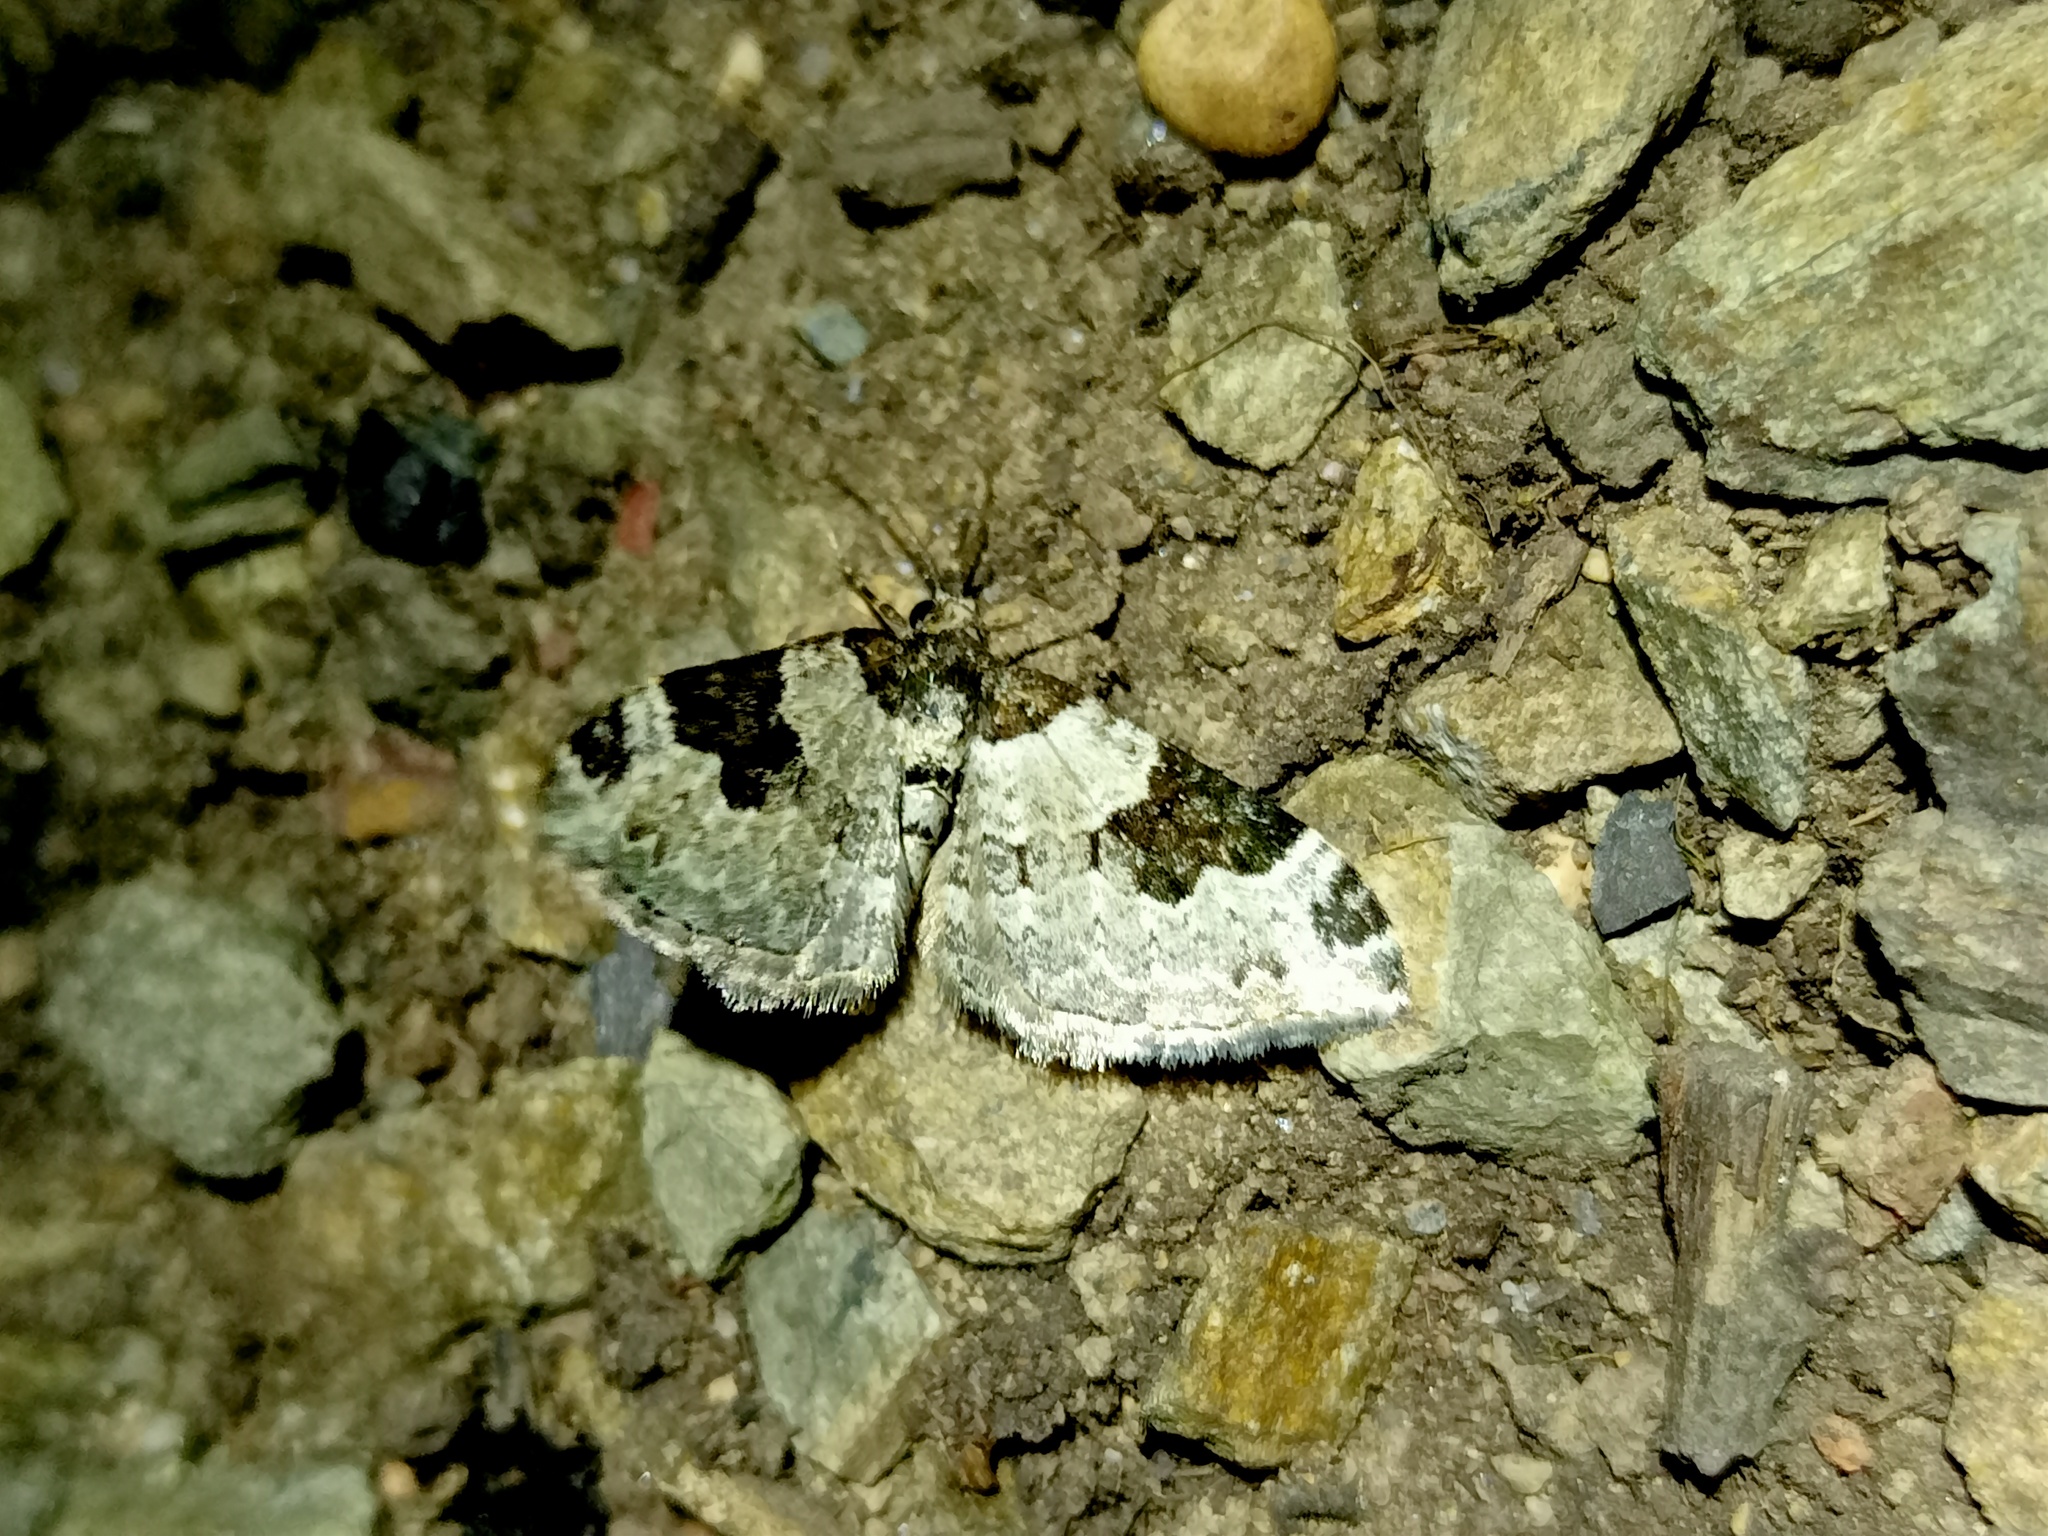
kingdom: Animalia
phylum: Arthropoda
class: Insecta
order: Lepidoptera
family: Geometridae
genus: Xanthorhoe
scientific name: Xanthorhoe fluctuata
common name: Garden carpet
